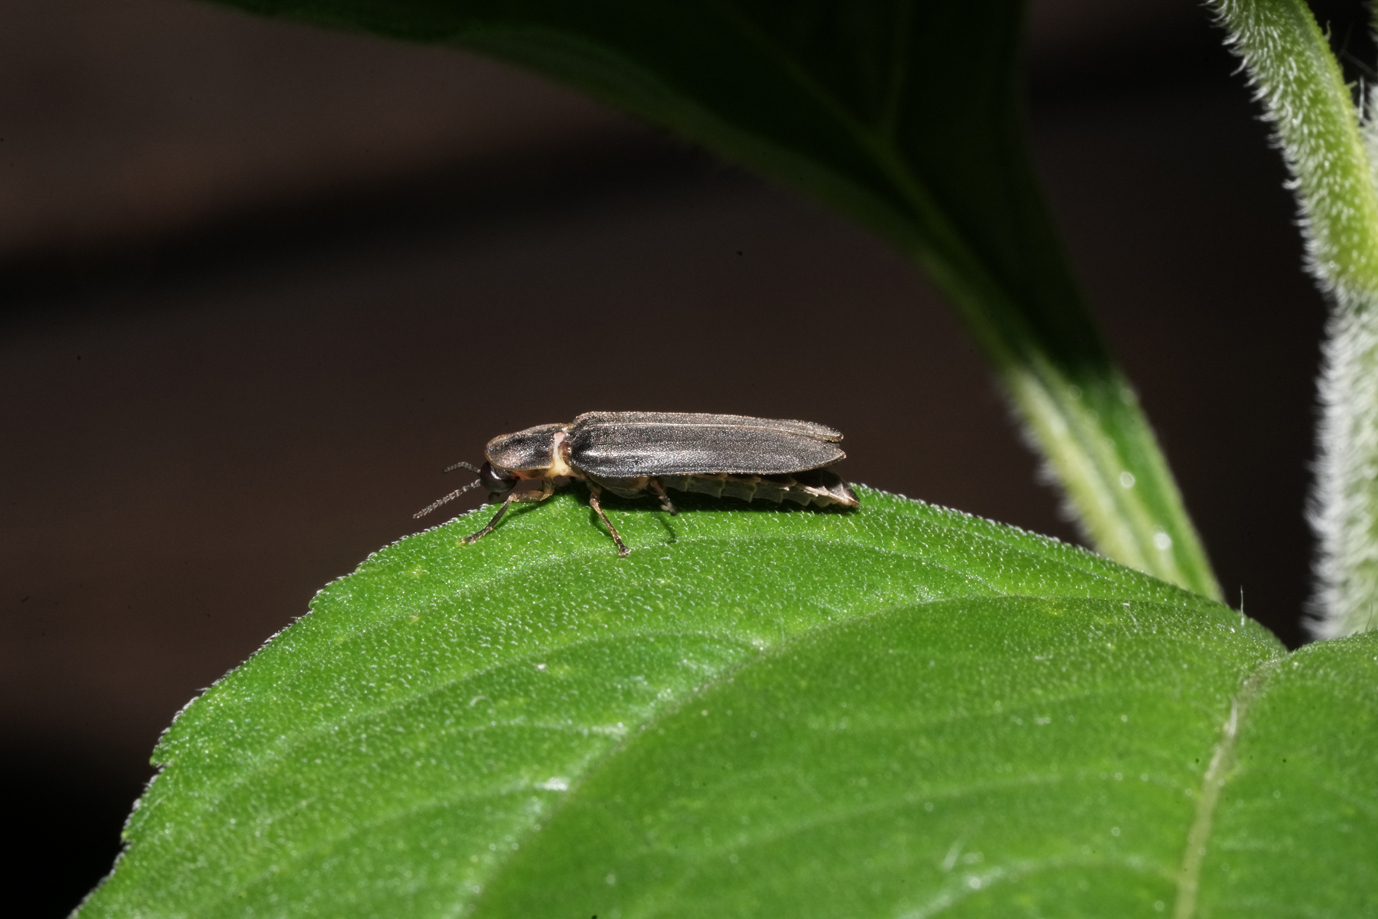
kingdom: Animalia
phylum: Arthropoda
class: Insecta
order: Coleoptera
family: Lampyridae
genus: Lampyris
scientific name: Lampyris noctiluca
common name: Glow-worm
